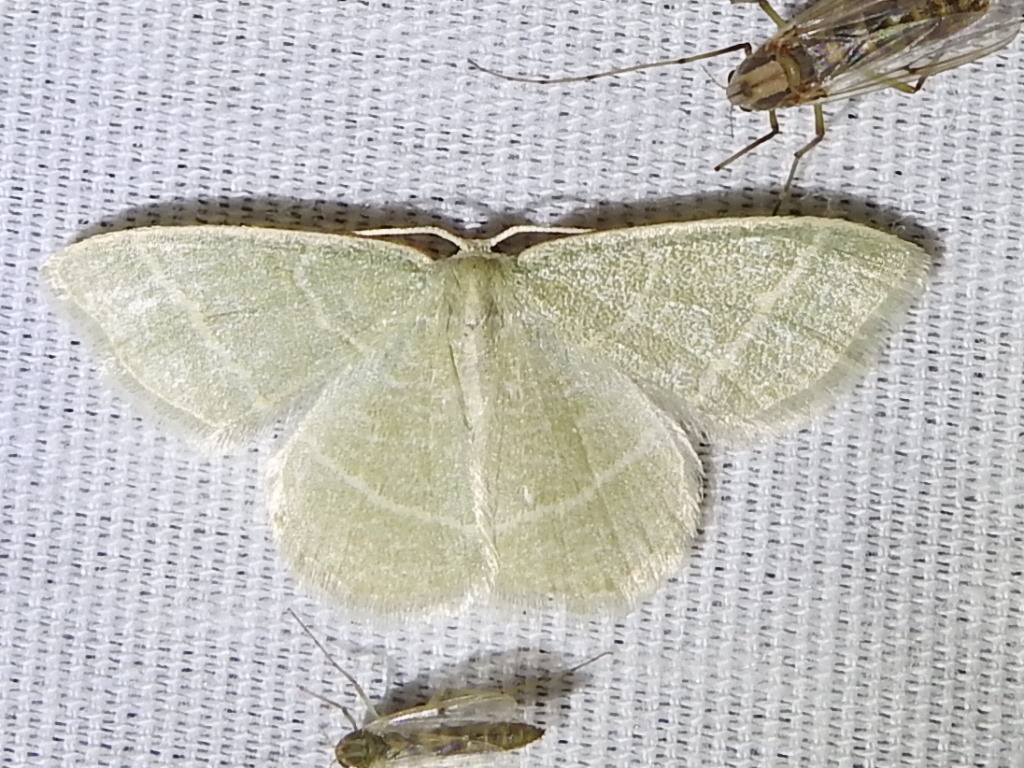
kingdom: Animalia
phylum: Arthropoda
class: Insecta
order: Lepidoptera
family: Geometridae
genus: Chlorochlamys
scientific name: Chlorochlamys chloroleucaria
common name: Blackberry looper
